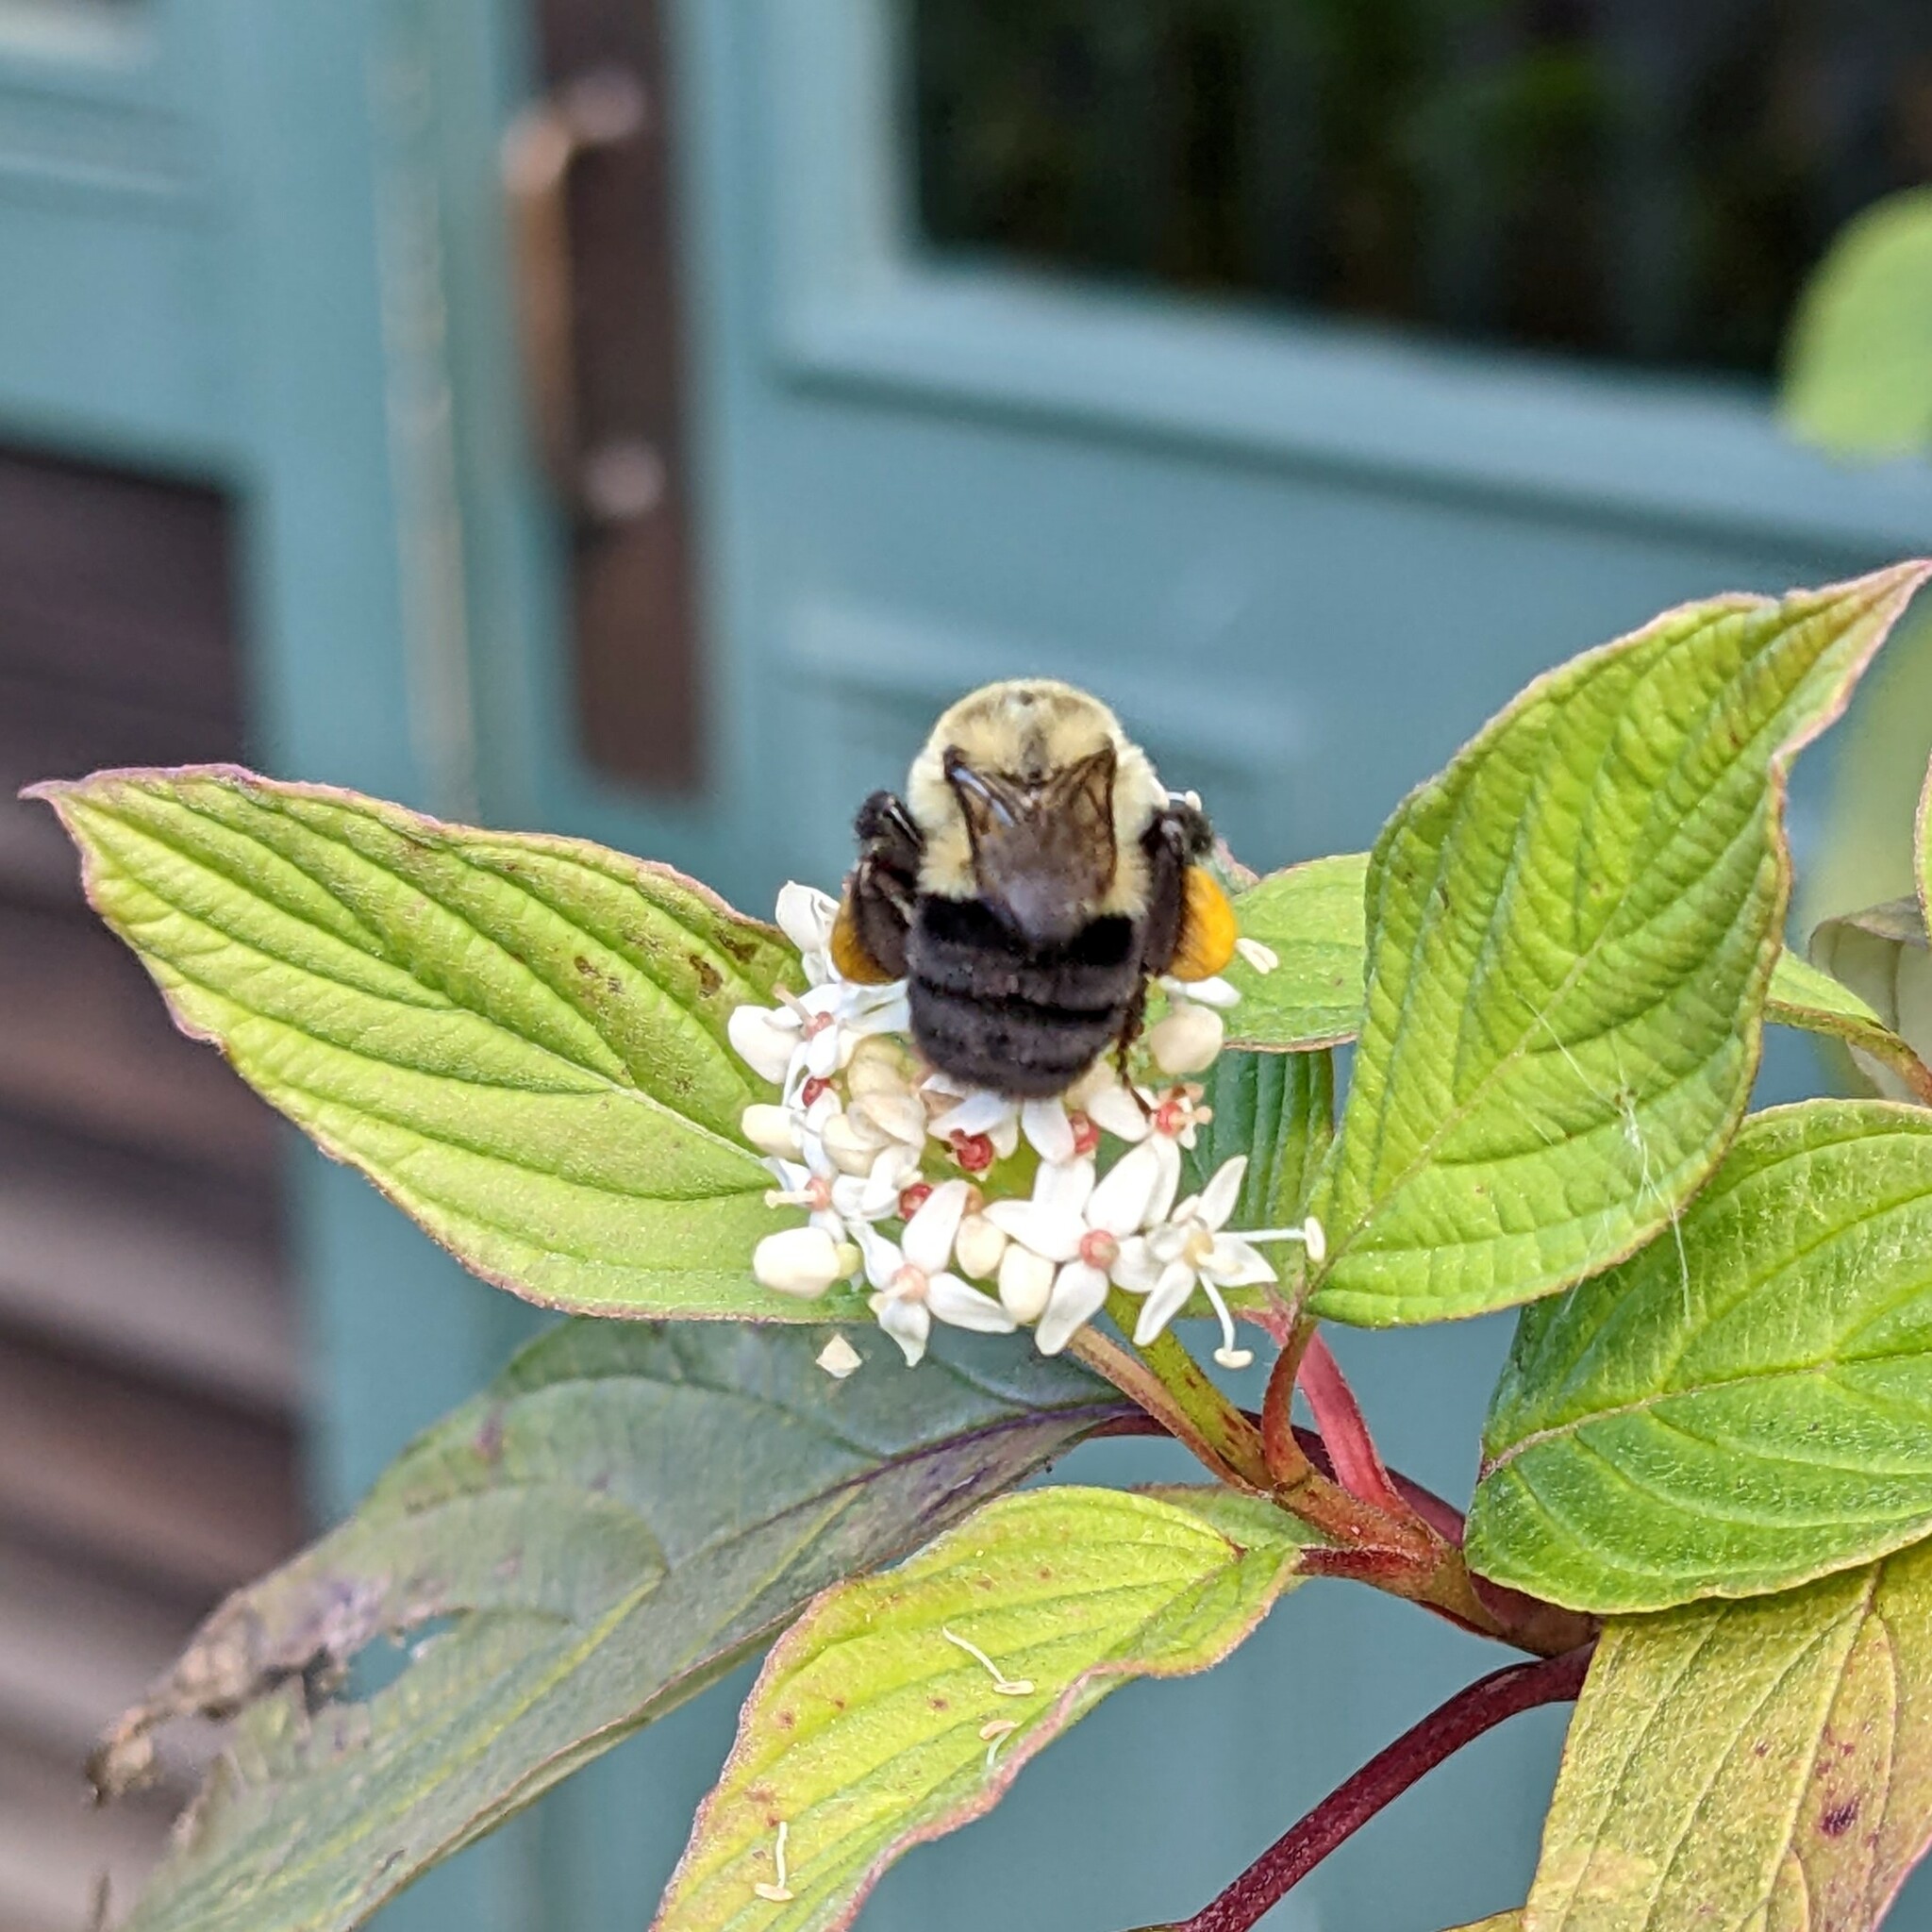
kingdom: Animalia
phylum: Arthropoda
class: Insecta
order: Hymenoptera
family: Apidae
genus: Bombus
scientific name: Bombus impatiens
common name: Common eastern bumble bee
